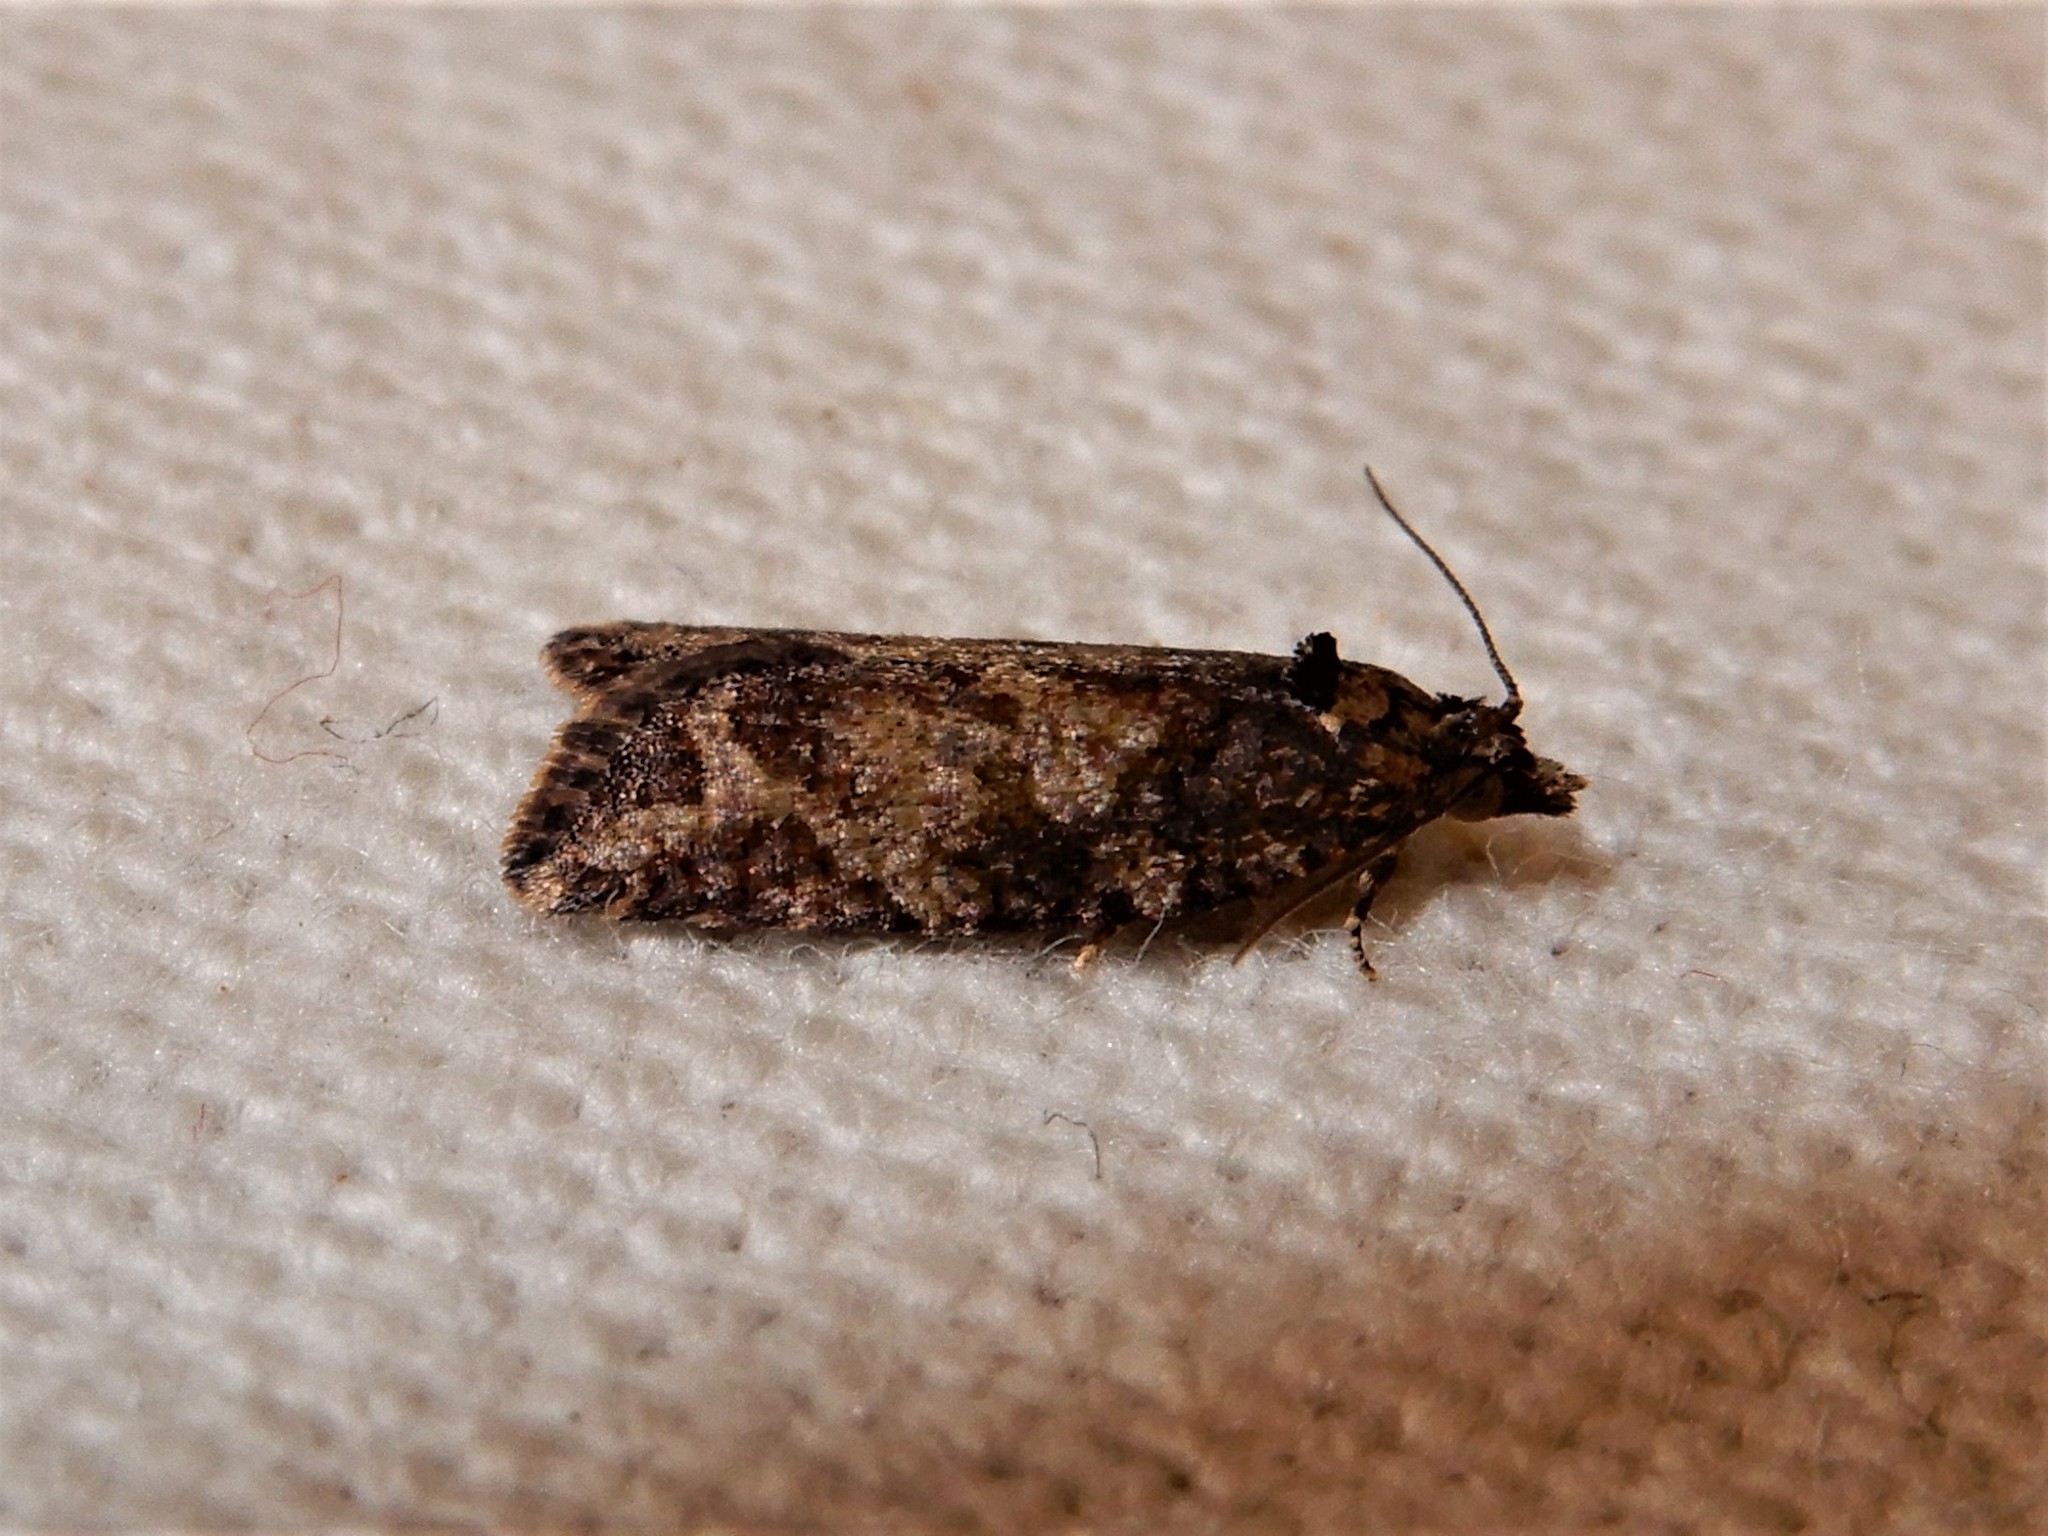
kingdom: Animalia
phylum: Arthropoda
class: Insecta
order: Lepidoptera
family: Tortricidae
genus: Capua
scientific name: Capua intractana
